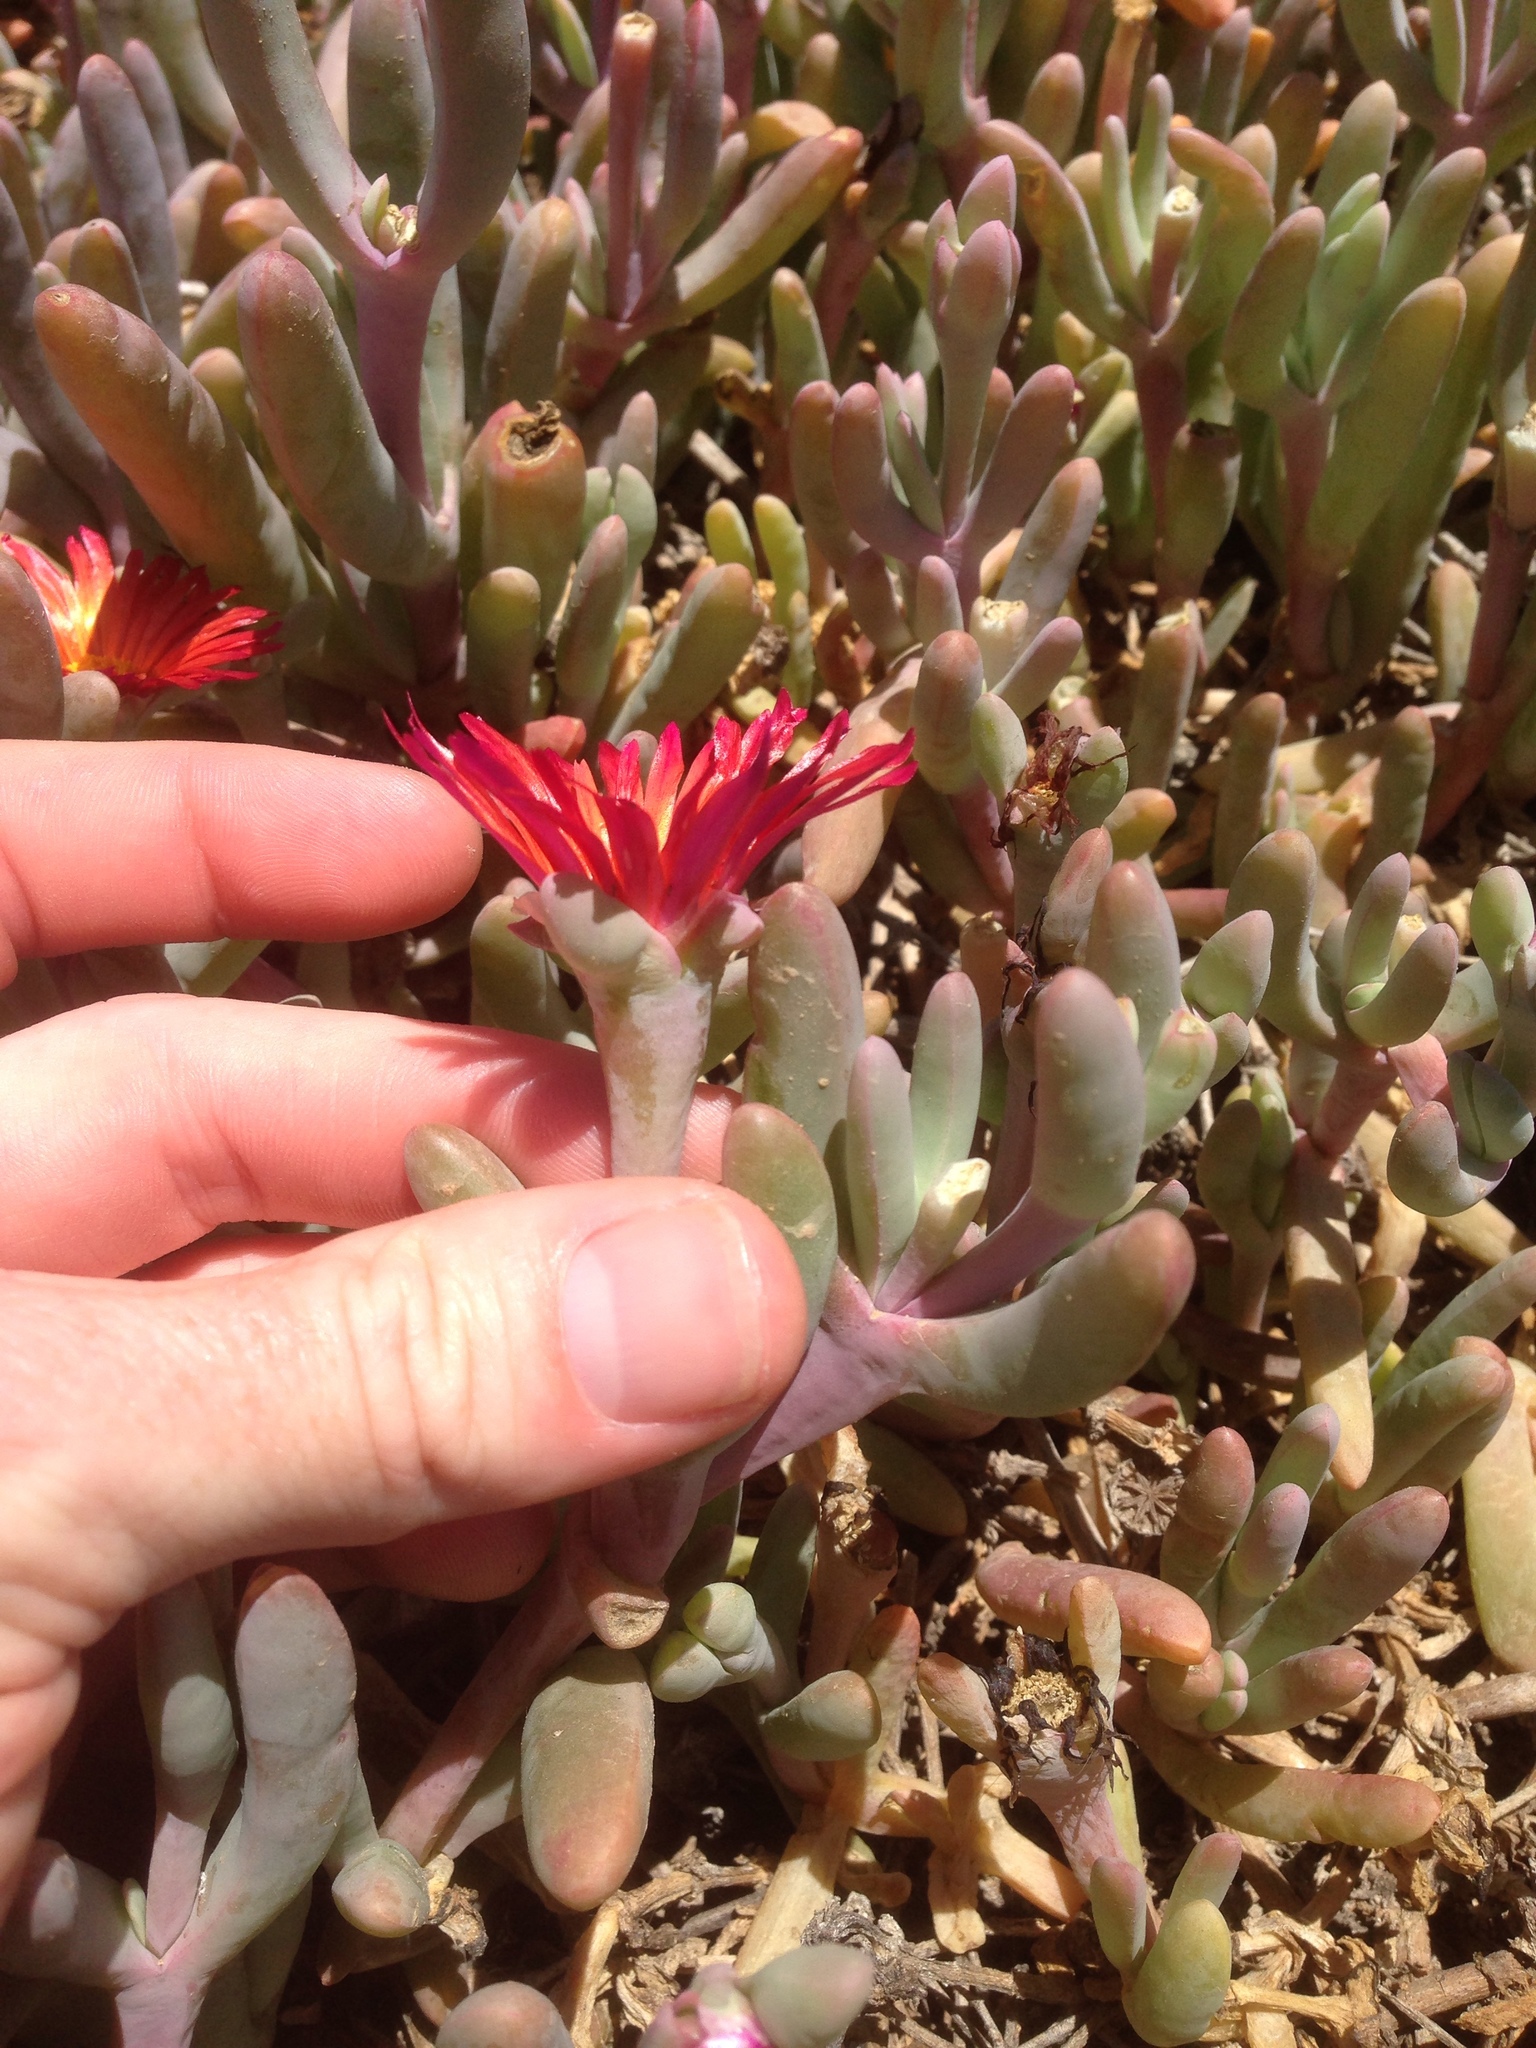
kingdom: Plantae
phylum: Tracheophyta
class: Magnoliopsida
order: Caryophyllales
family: Aizoaceae
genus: Malephora
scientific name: Malephora crocea
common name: Coppery mesemb
